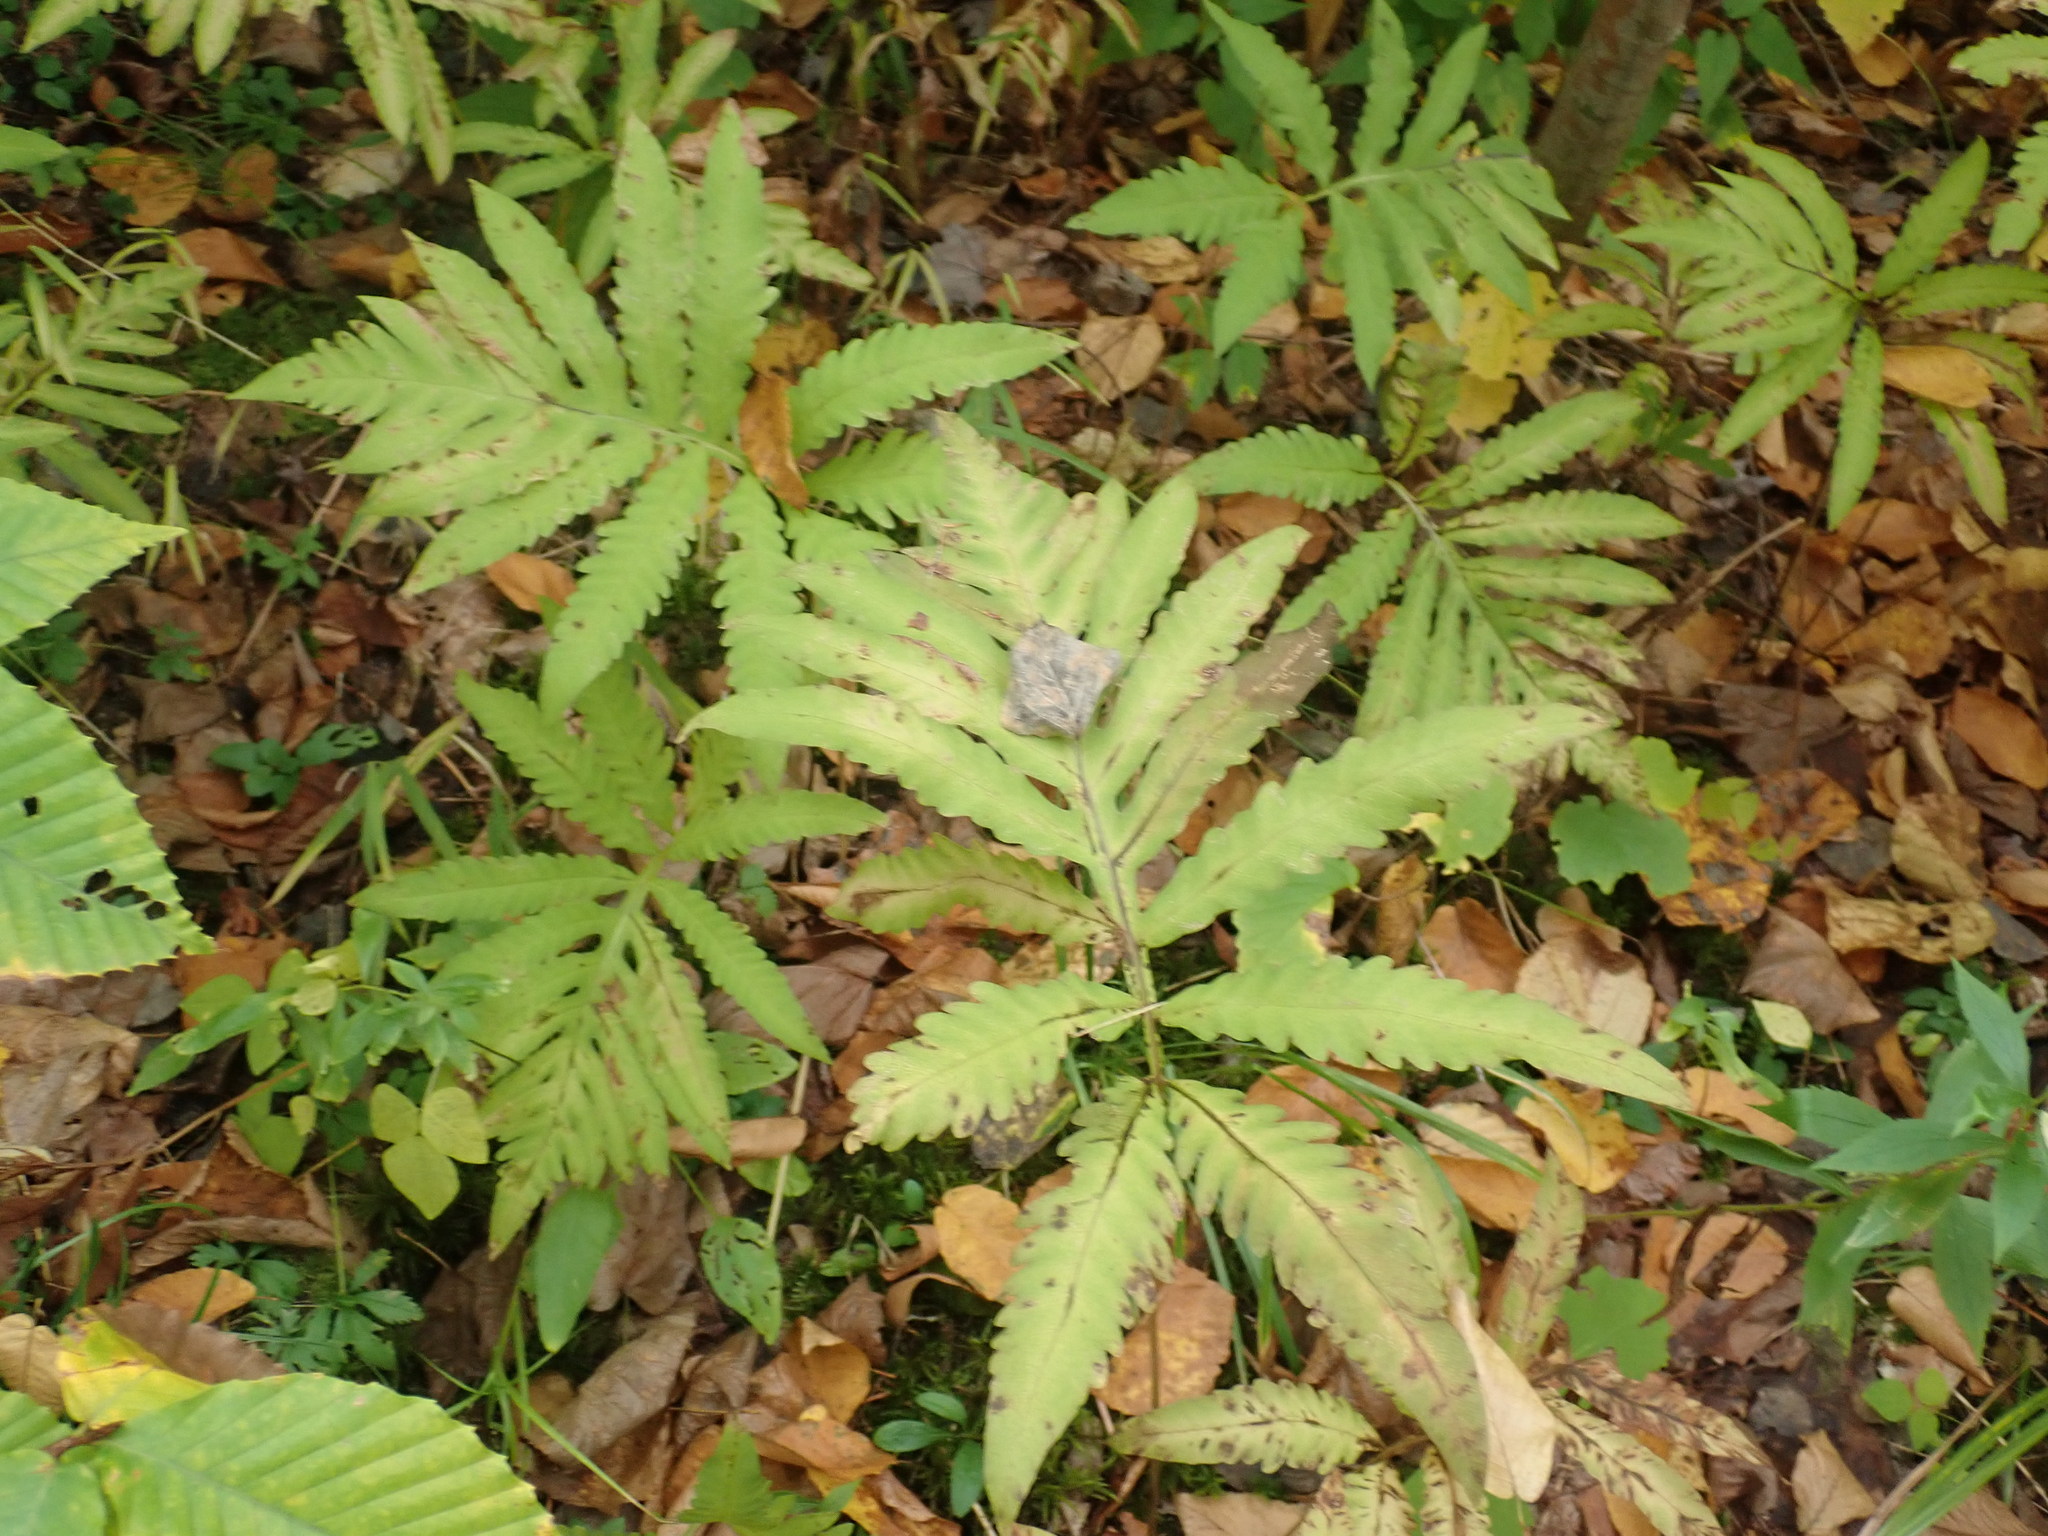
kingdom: Plantae
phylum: Tracheophyta
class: Polypodiopsida
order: Polypodiales
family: Onocleaceae
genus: Onoclea
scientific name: Onoclea sensibilis
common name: Sensitive fern
